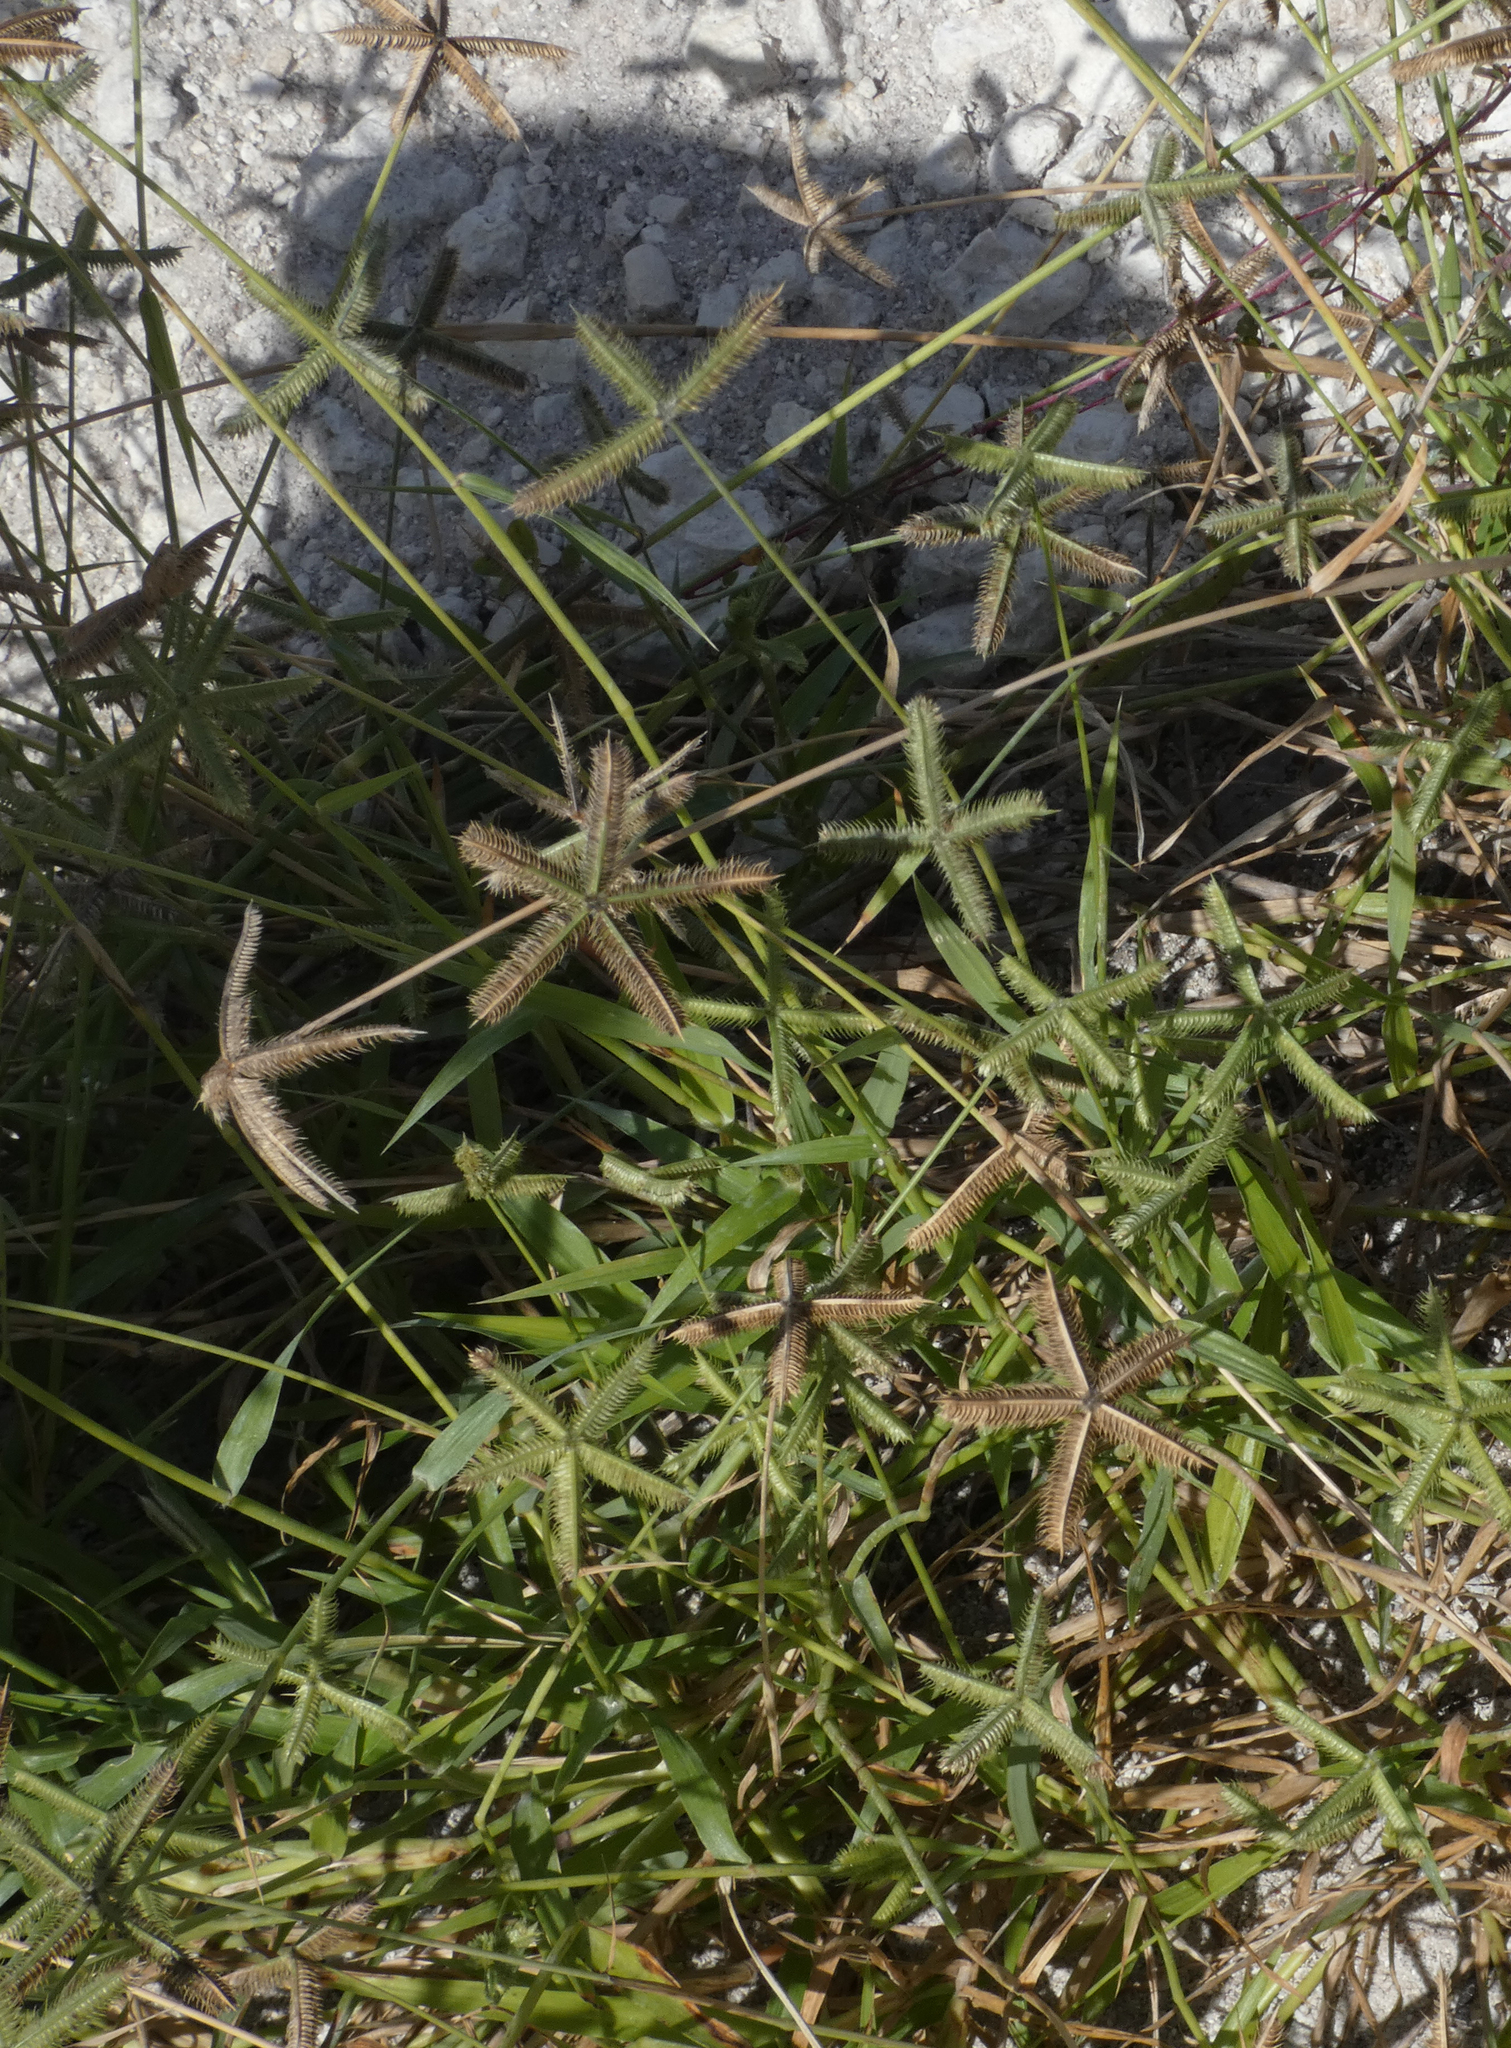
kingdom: Plantae
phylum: Tracheophyta
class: Liliopsida
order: Poales
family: Poaceae
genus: Dactyloctenium
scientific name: Dactyloctenium aegyptium
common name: Egyptian grass
